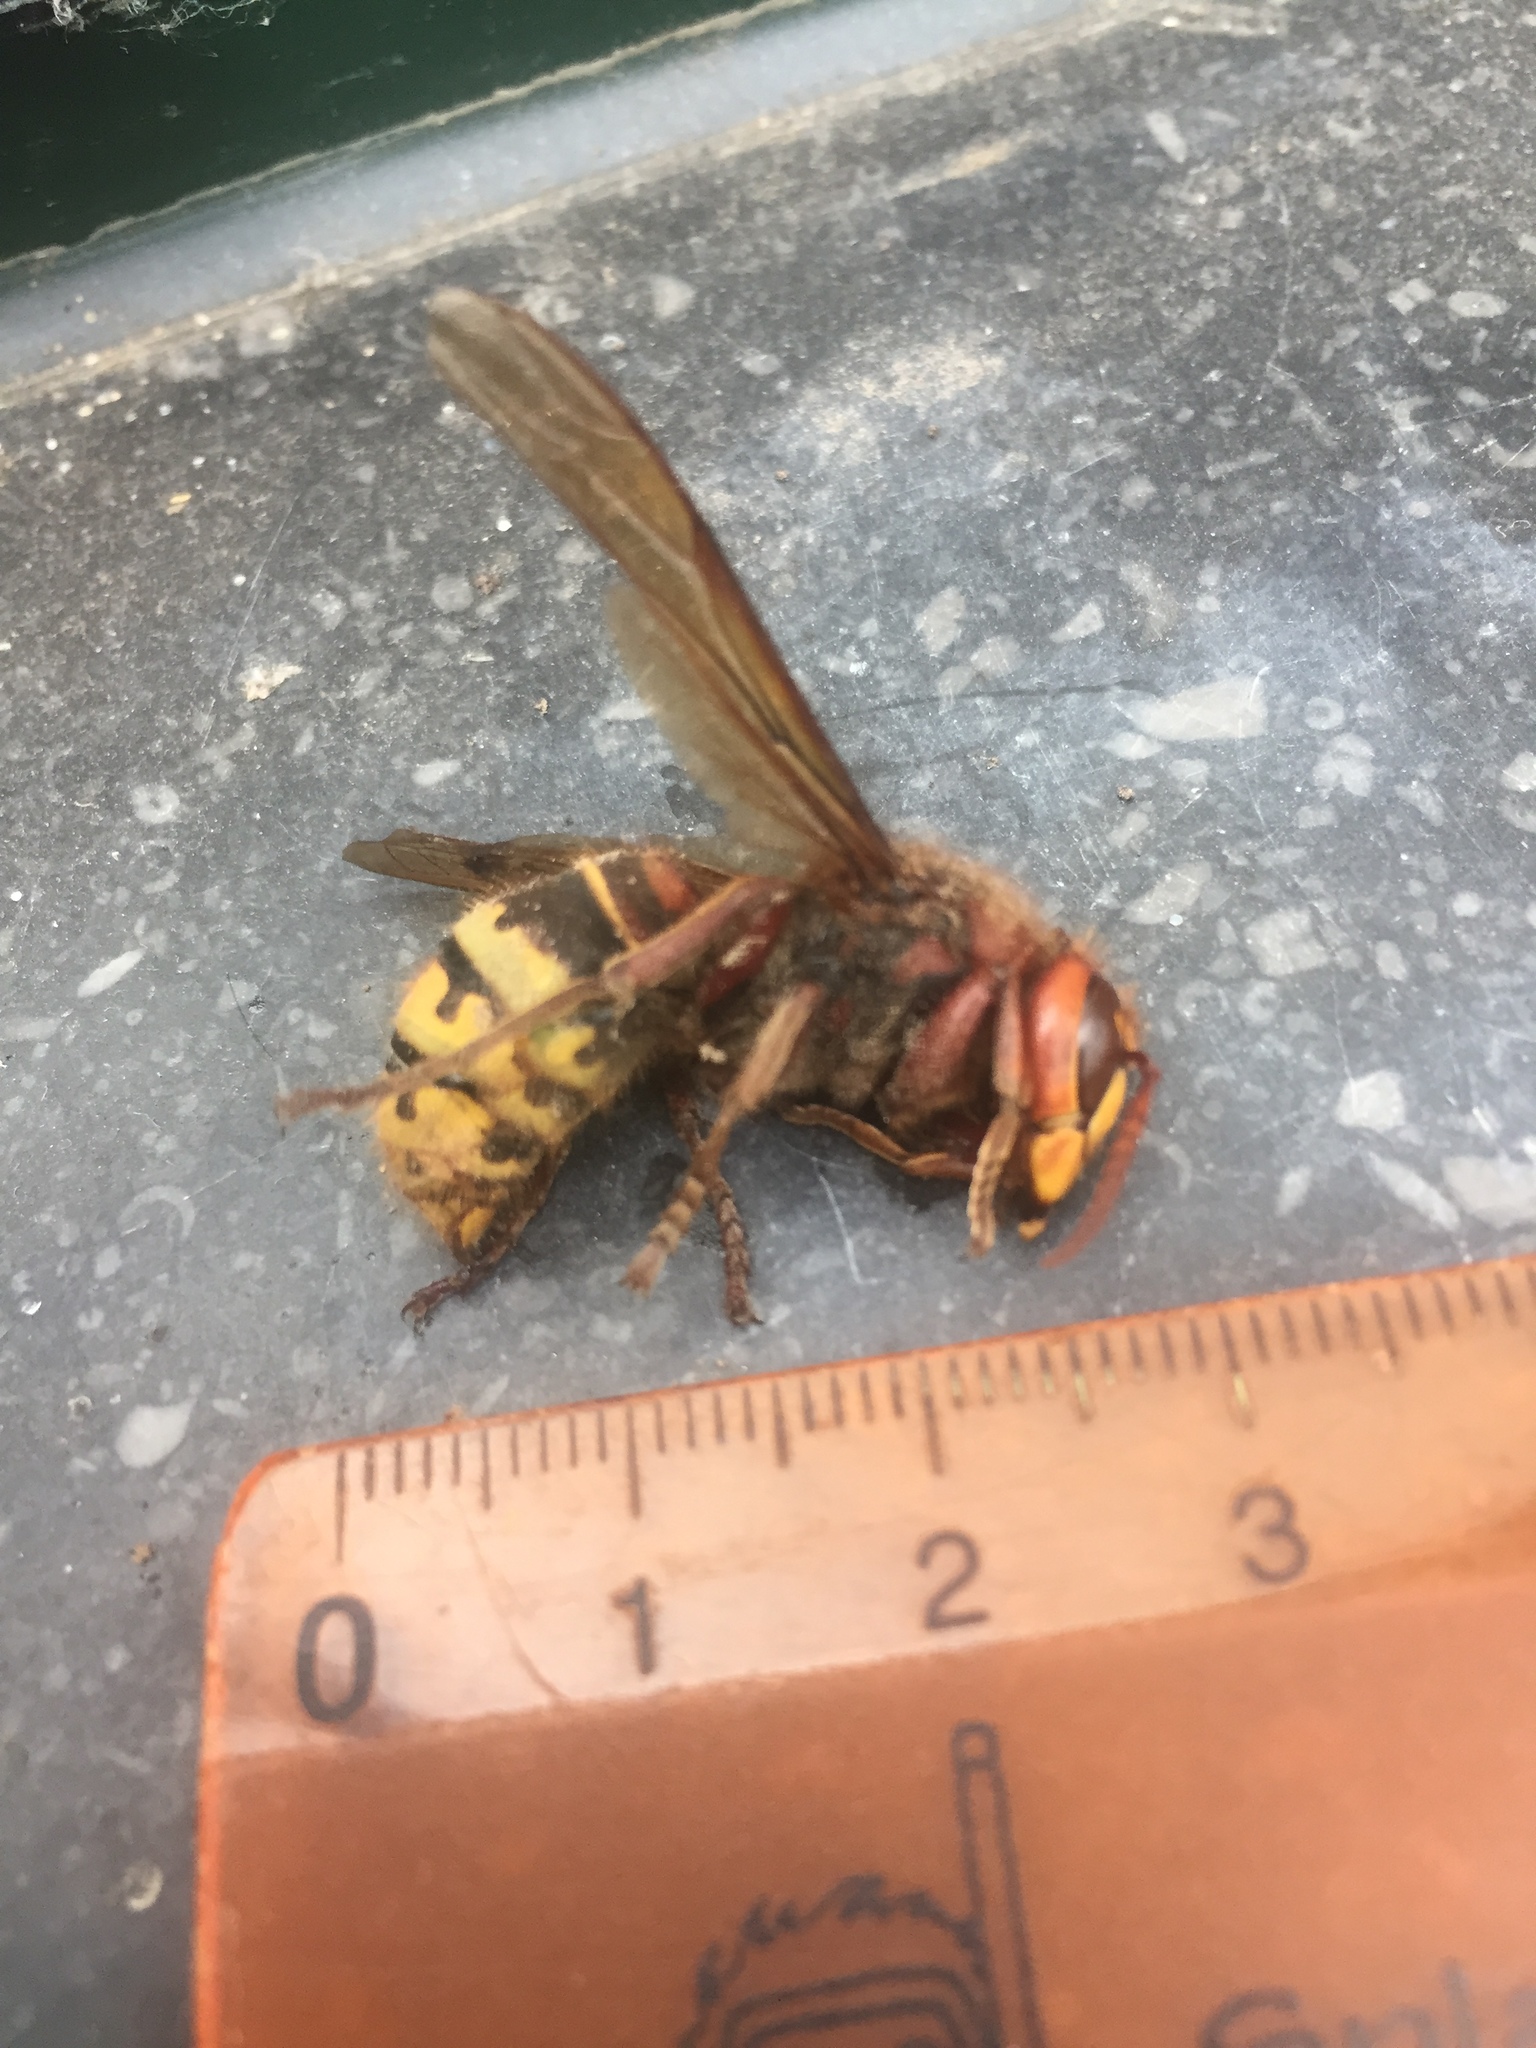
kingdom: Animalia
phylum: Arthropoda
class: Insecta
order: Hymenoptera
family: Vespidae
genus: Vespa
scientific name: Vespa crabro
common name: Hornet
